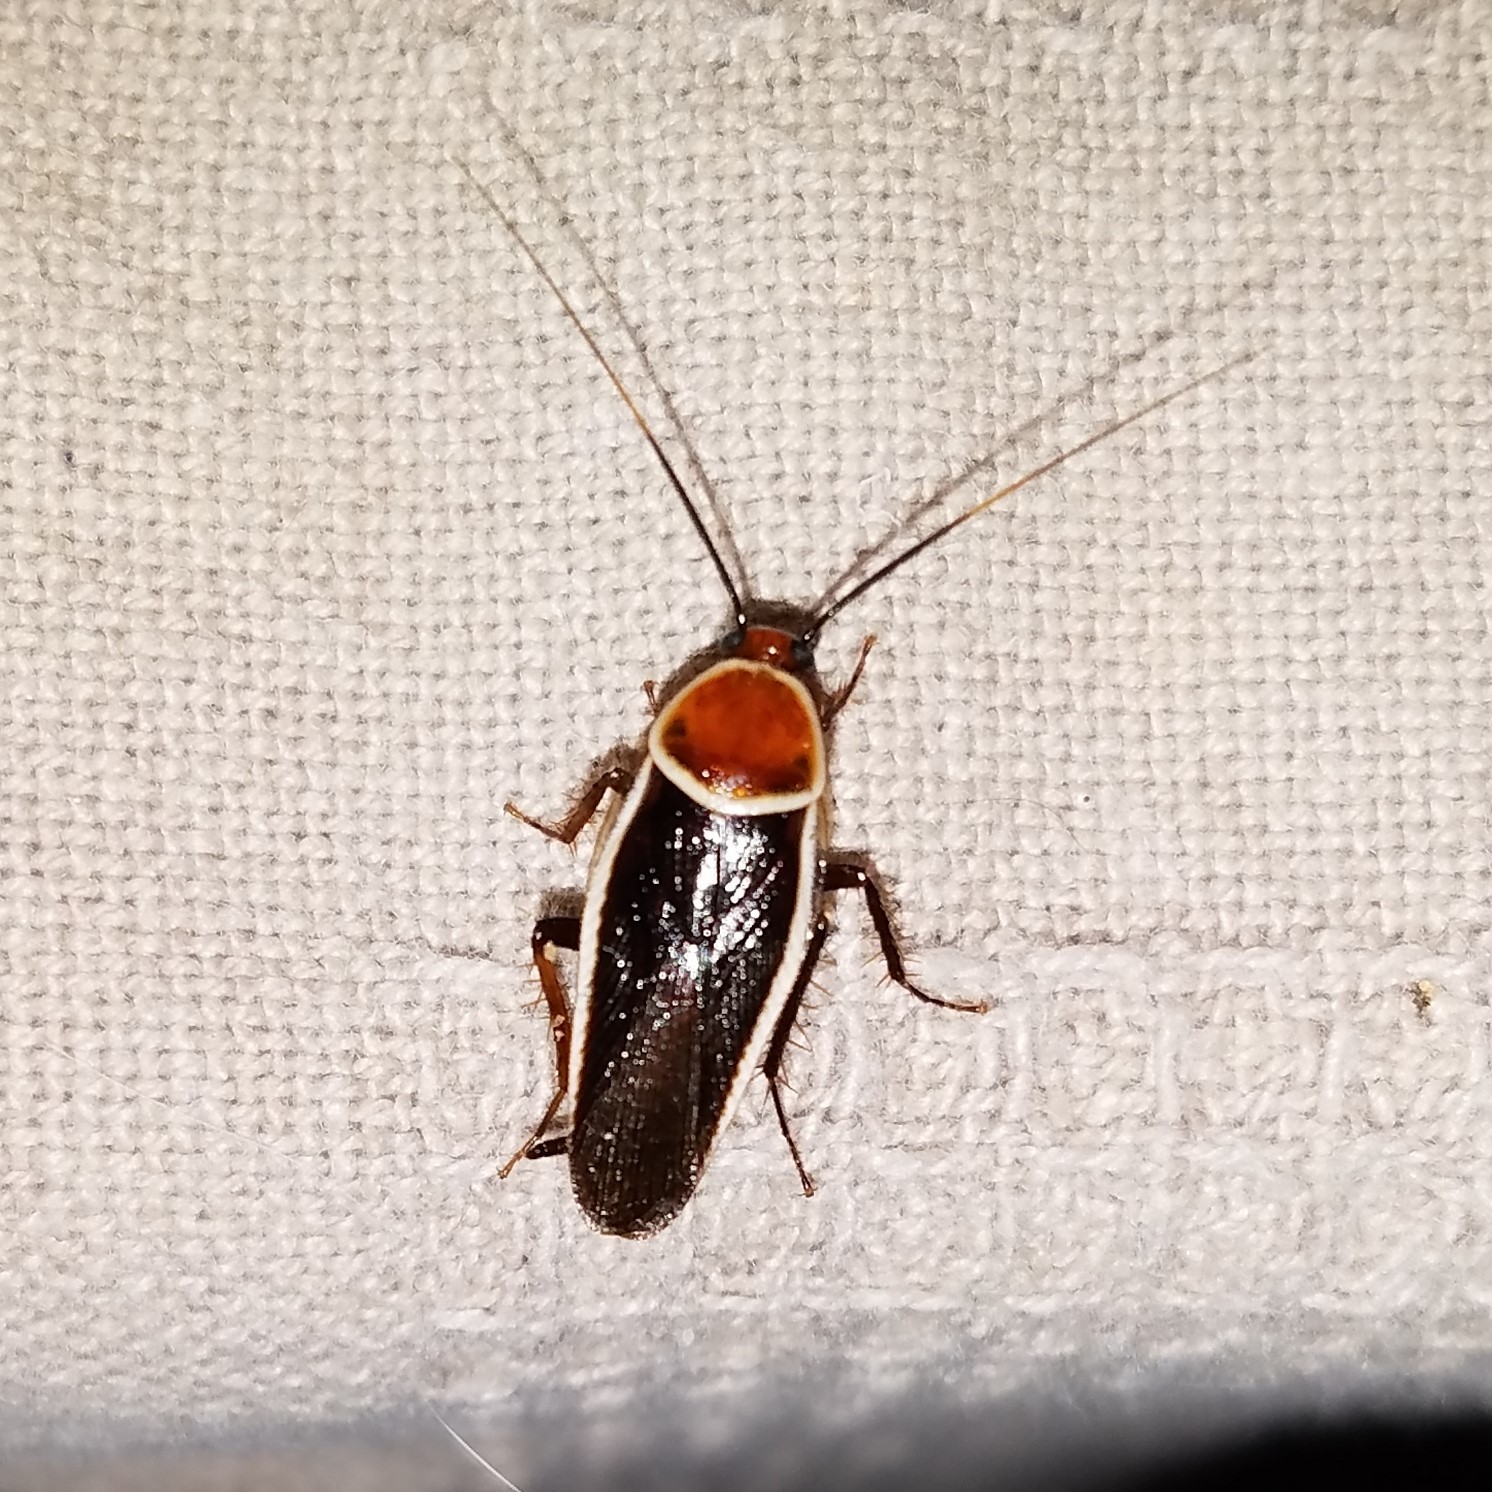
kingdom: Animalia
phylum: Arthropoda
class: Insecta
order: Blattodea
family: Ectobiidae
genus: Pseudomops
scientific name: Pseudomops septentrionalis
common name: Pale-bordered field cockroach
